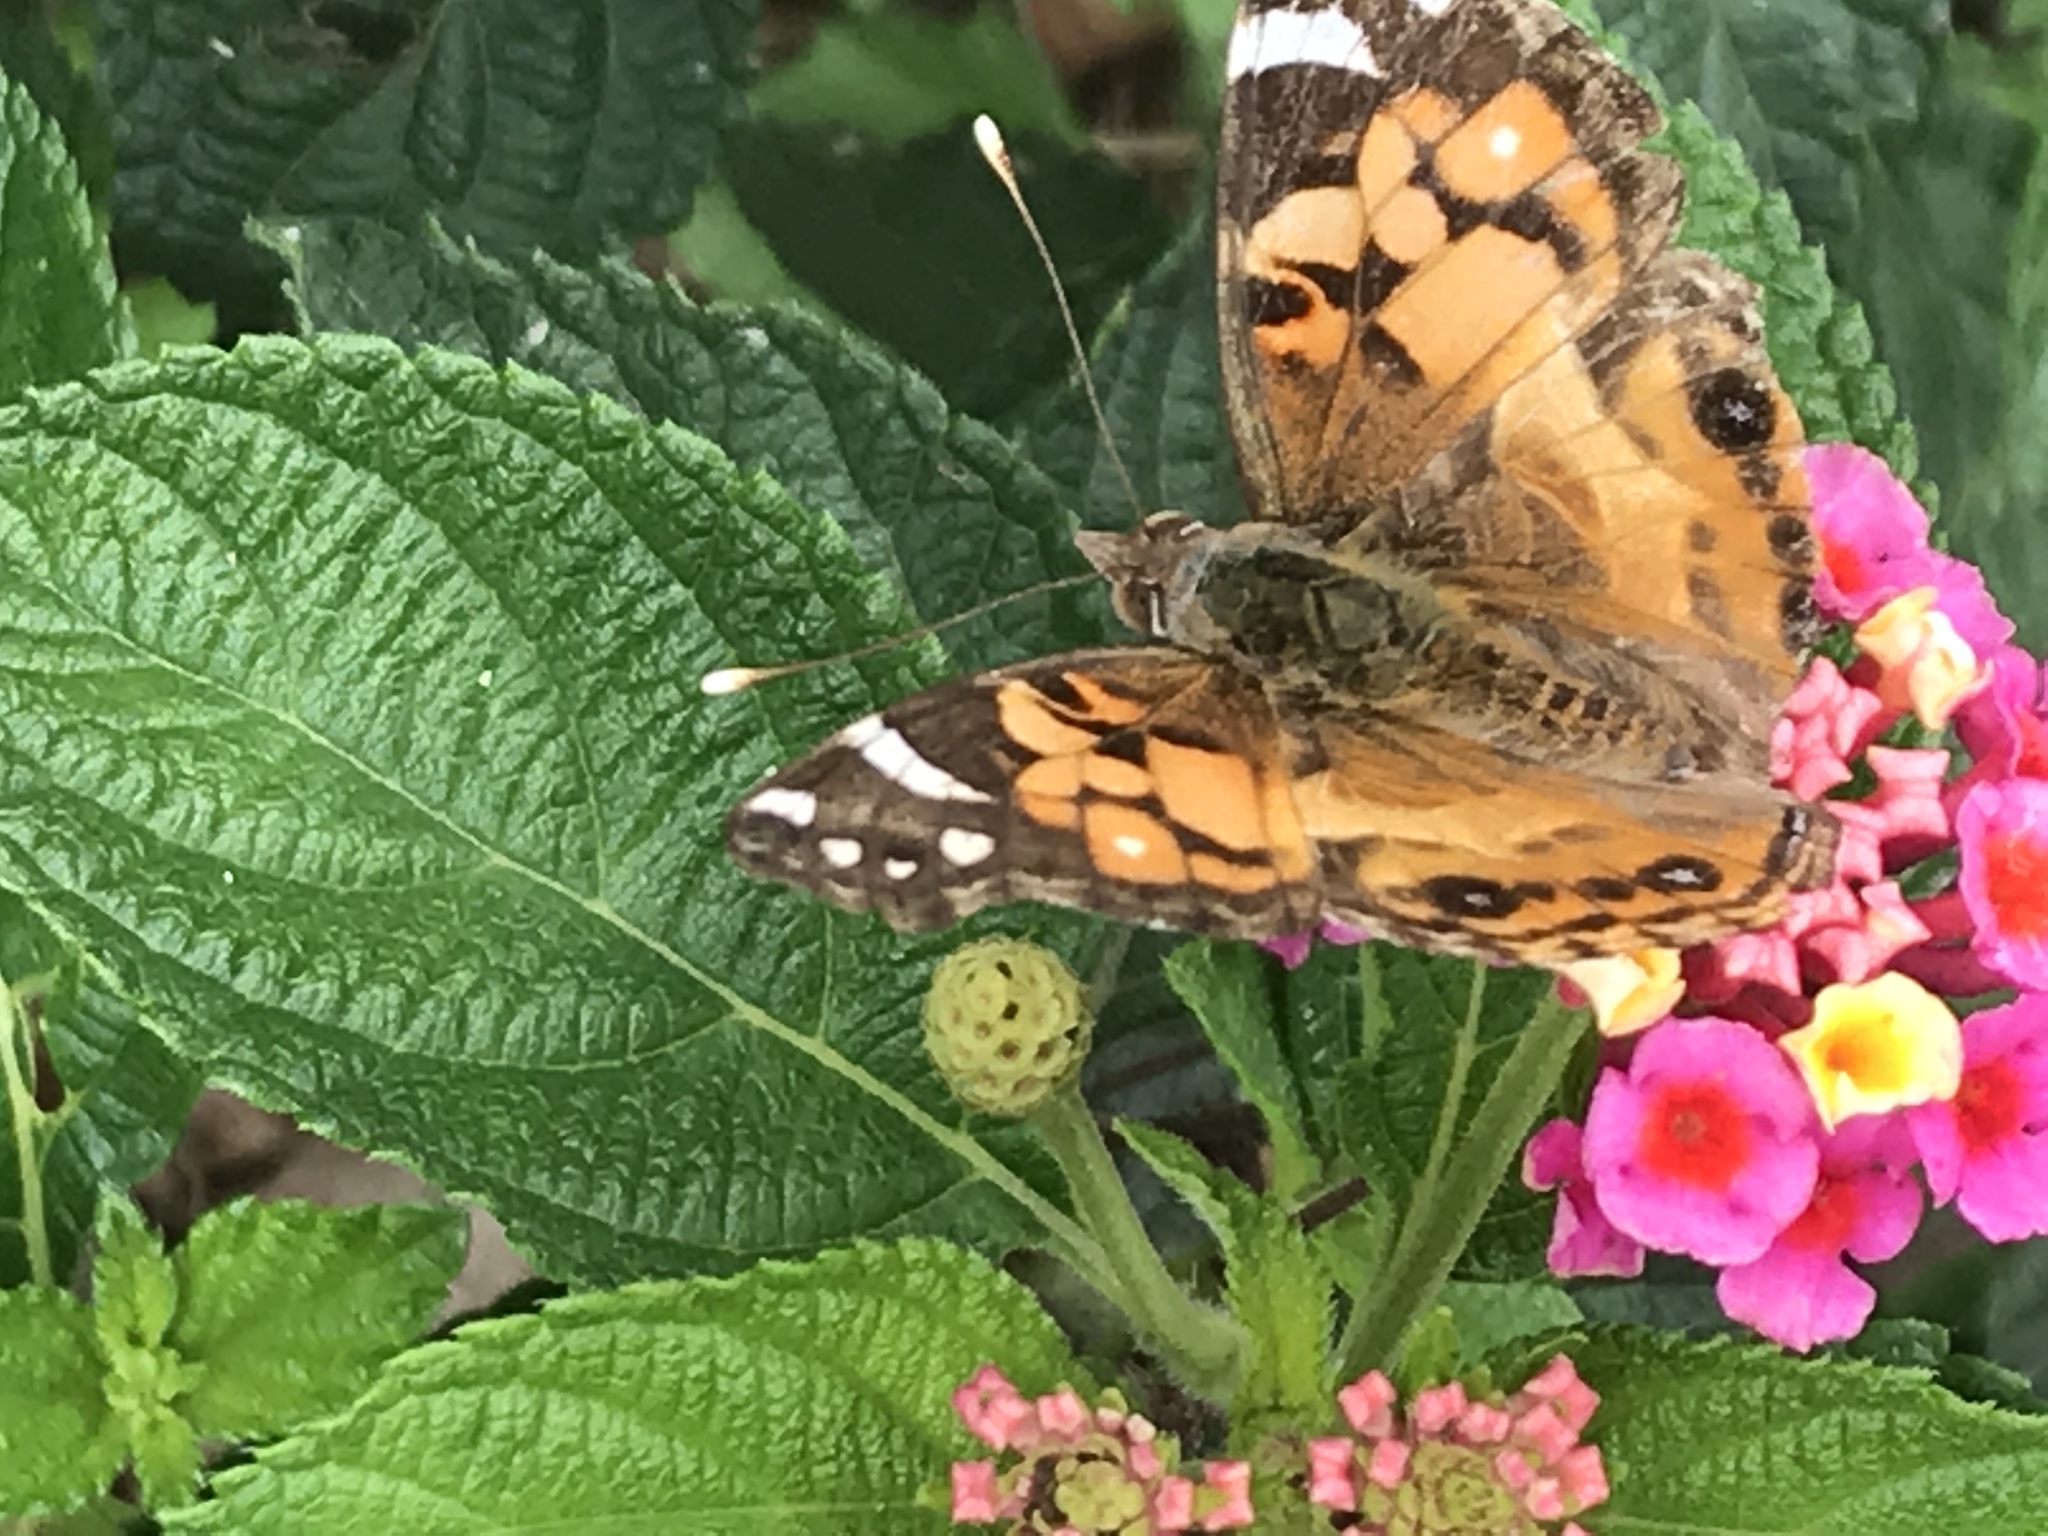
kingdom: Animalia
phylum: Arthropoda
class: Insecta
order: Lepidoptera
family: Nymphalidae
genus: Vanessa
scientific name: Vanessa virginiensis
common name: American lady
